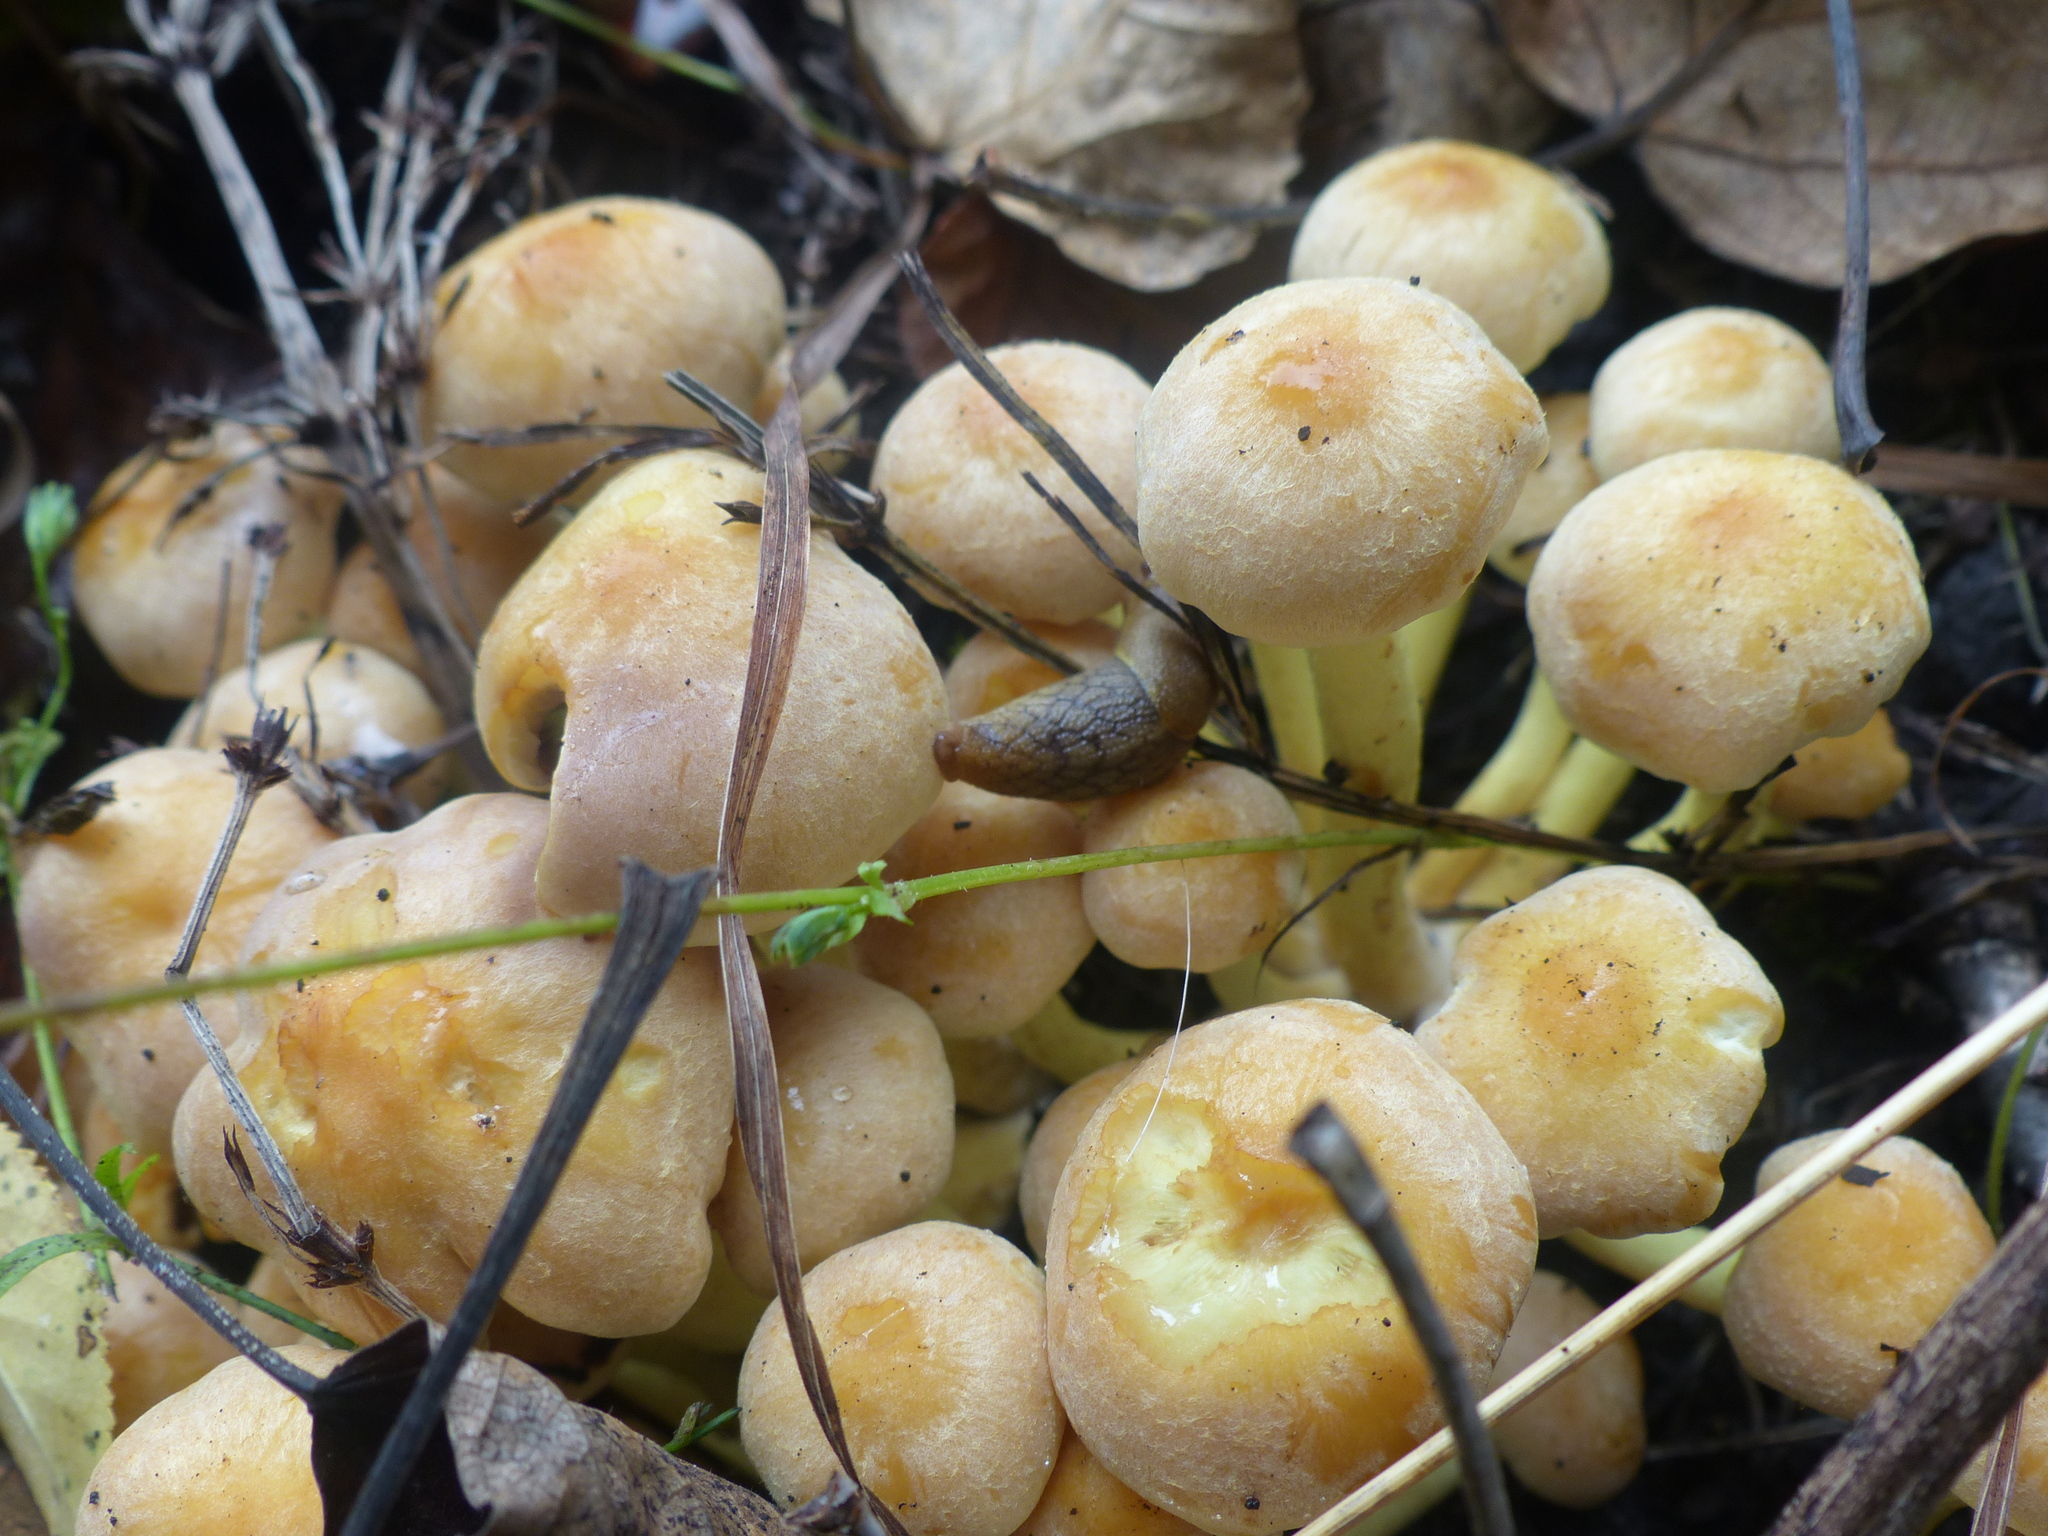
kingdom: Fungi
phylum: Basidiomycota
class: Agaricomycetes
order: Agaricales
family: Strophariaceae
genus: Hypholoma
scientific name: Hypholoma fasciculare
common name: Sulphur tuft
